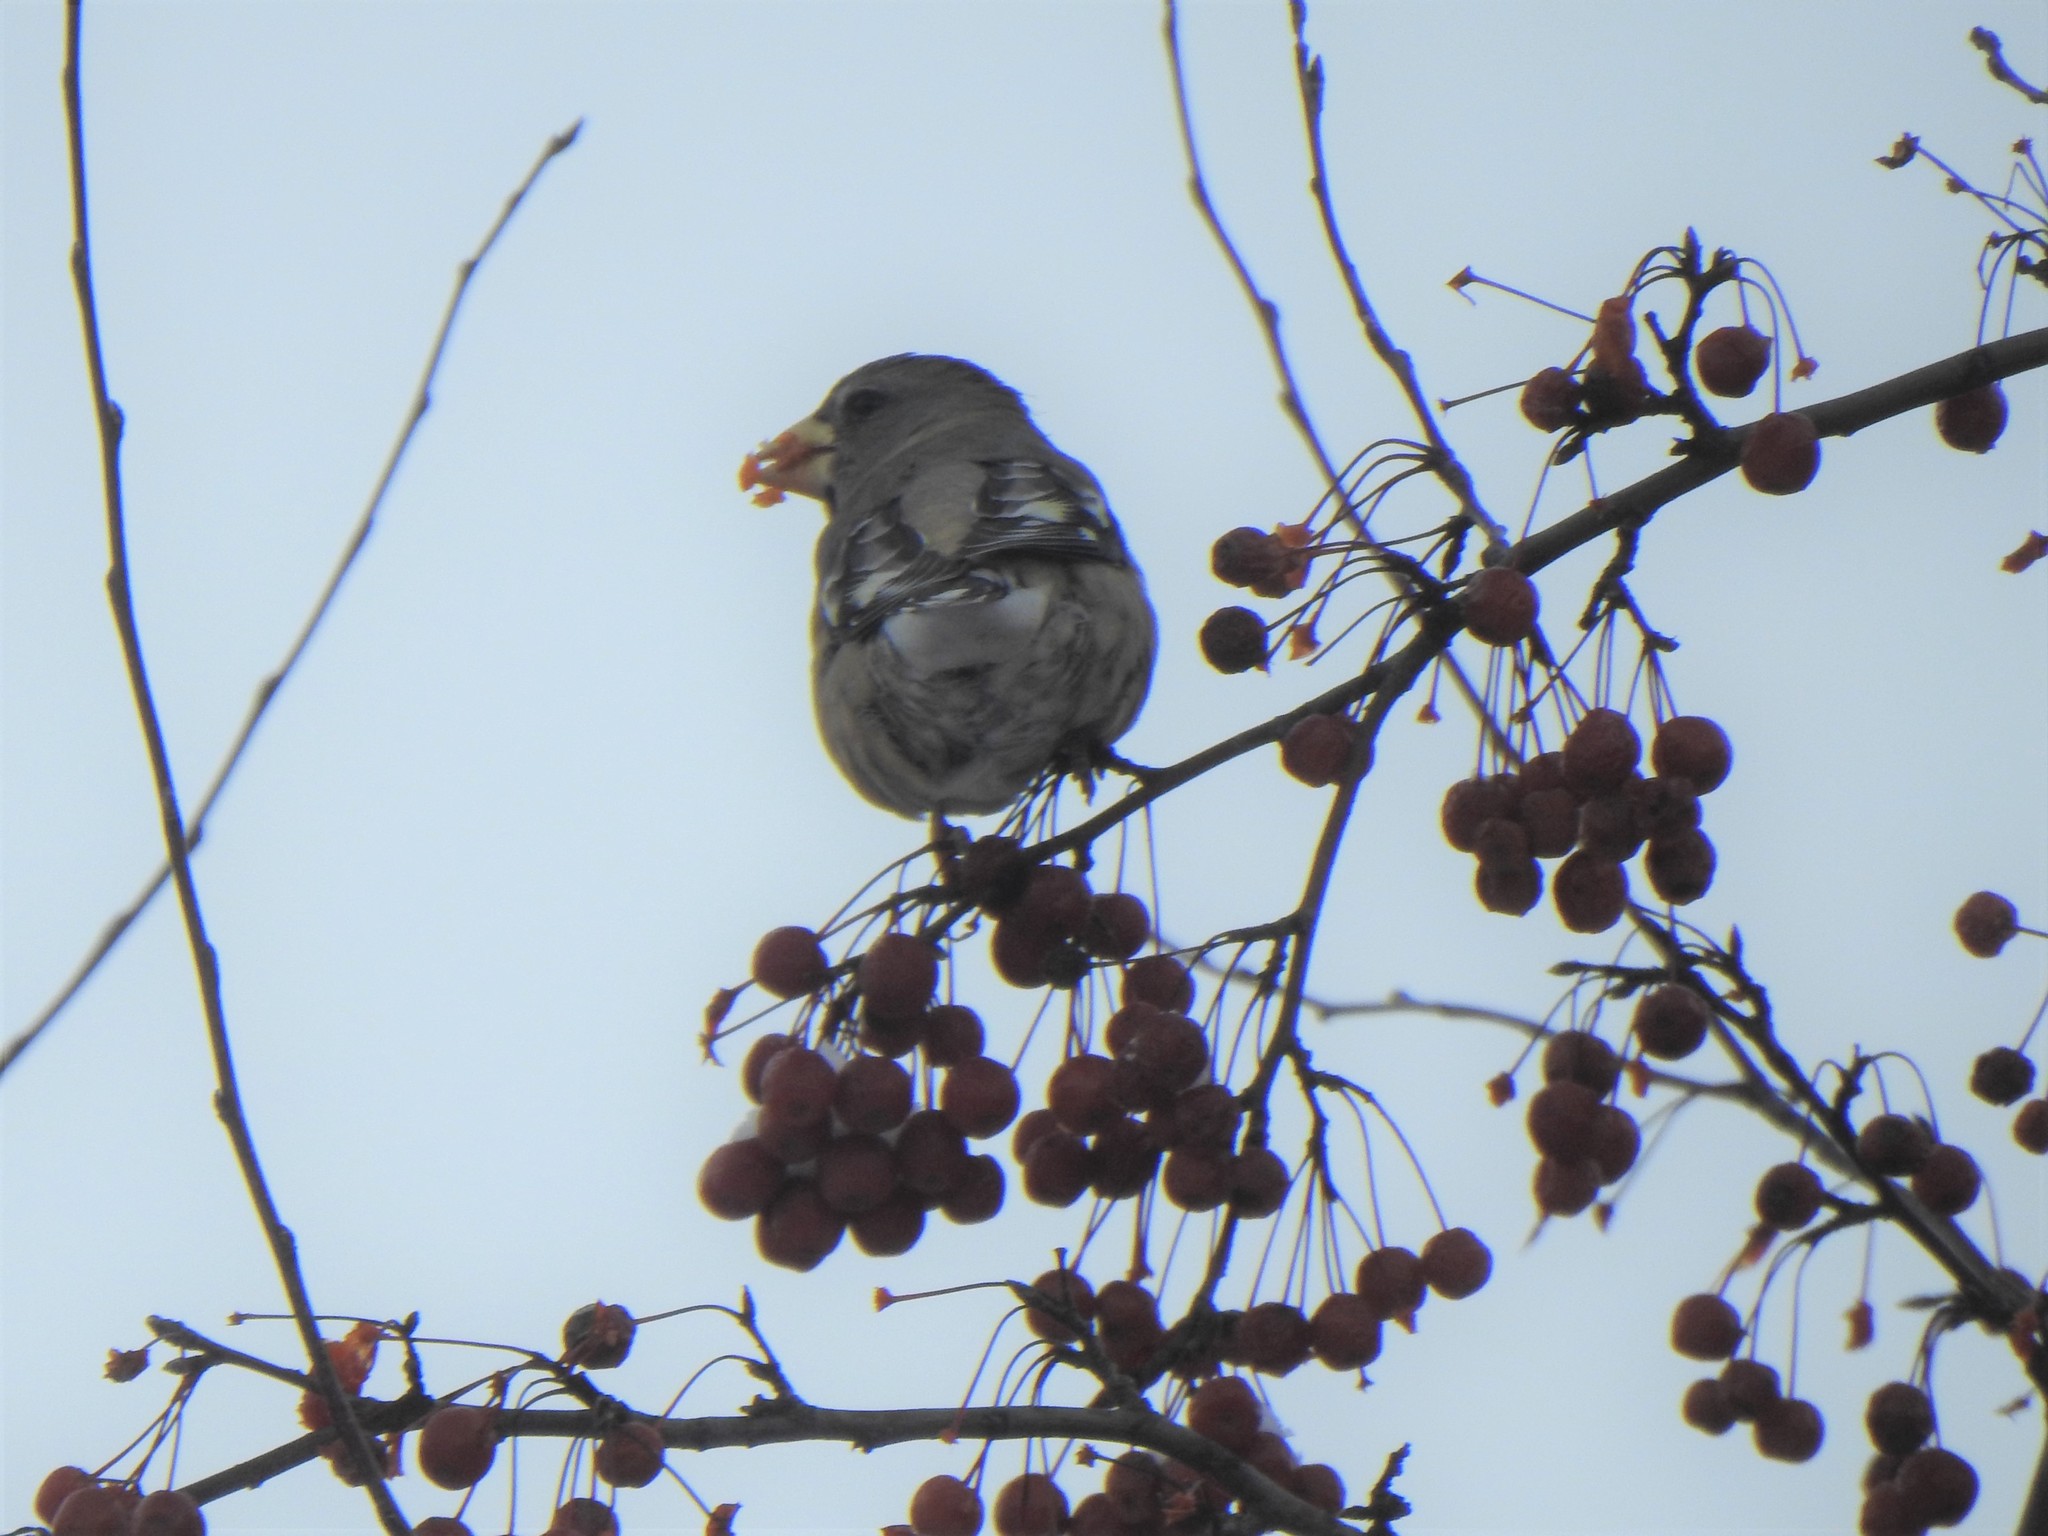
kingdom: Animalia
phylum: Chordata
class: Aves
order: Passeriformes
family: Fringillidae
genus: Hesperiphona
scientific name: Hesperiphona vespertina
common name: Evening grosbeak
